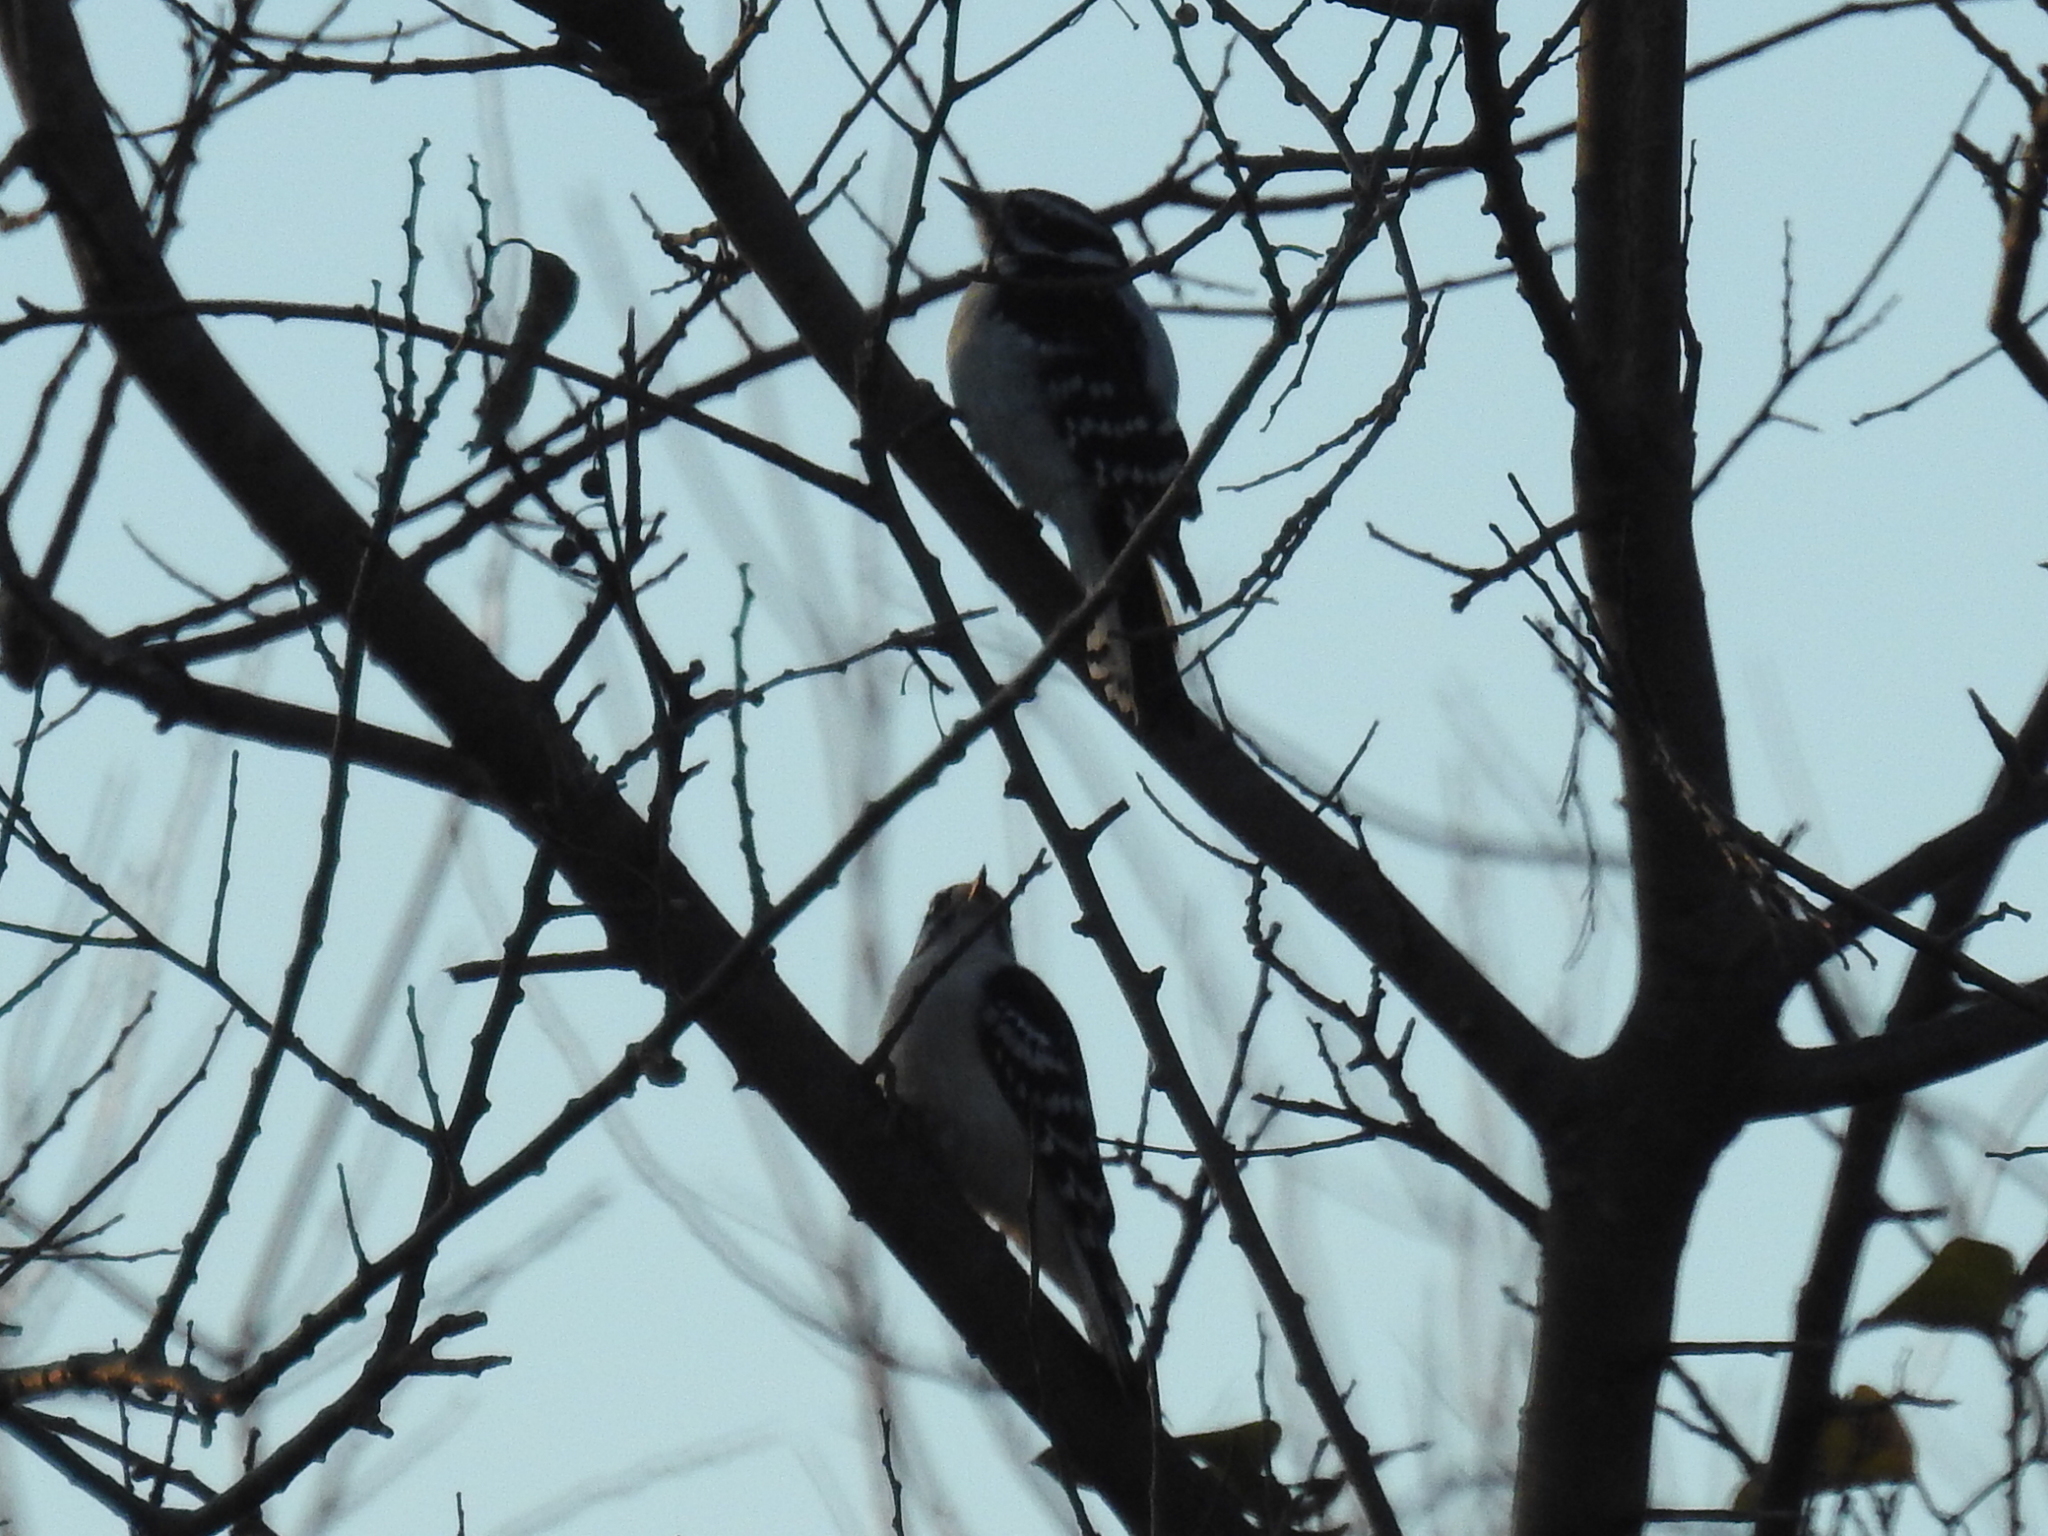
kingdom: Animalia
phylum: Chordata
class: Aves
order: Piciformes
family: Picidae
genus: Dryobates
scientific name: Dryobates pubescens
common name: Downy woodpecker
